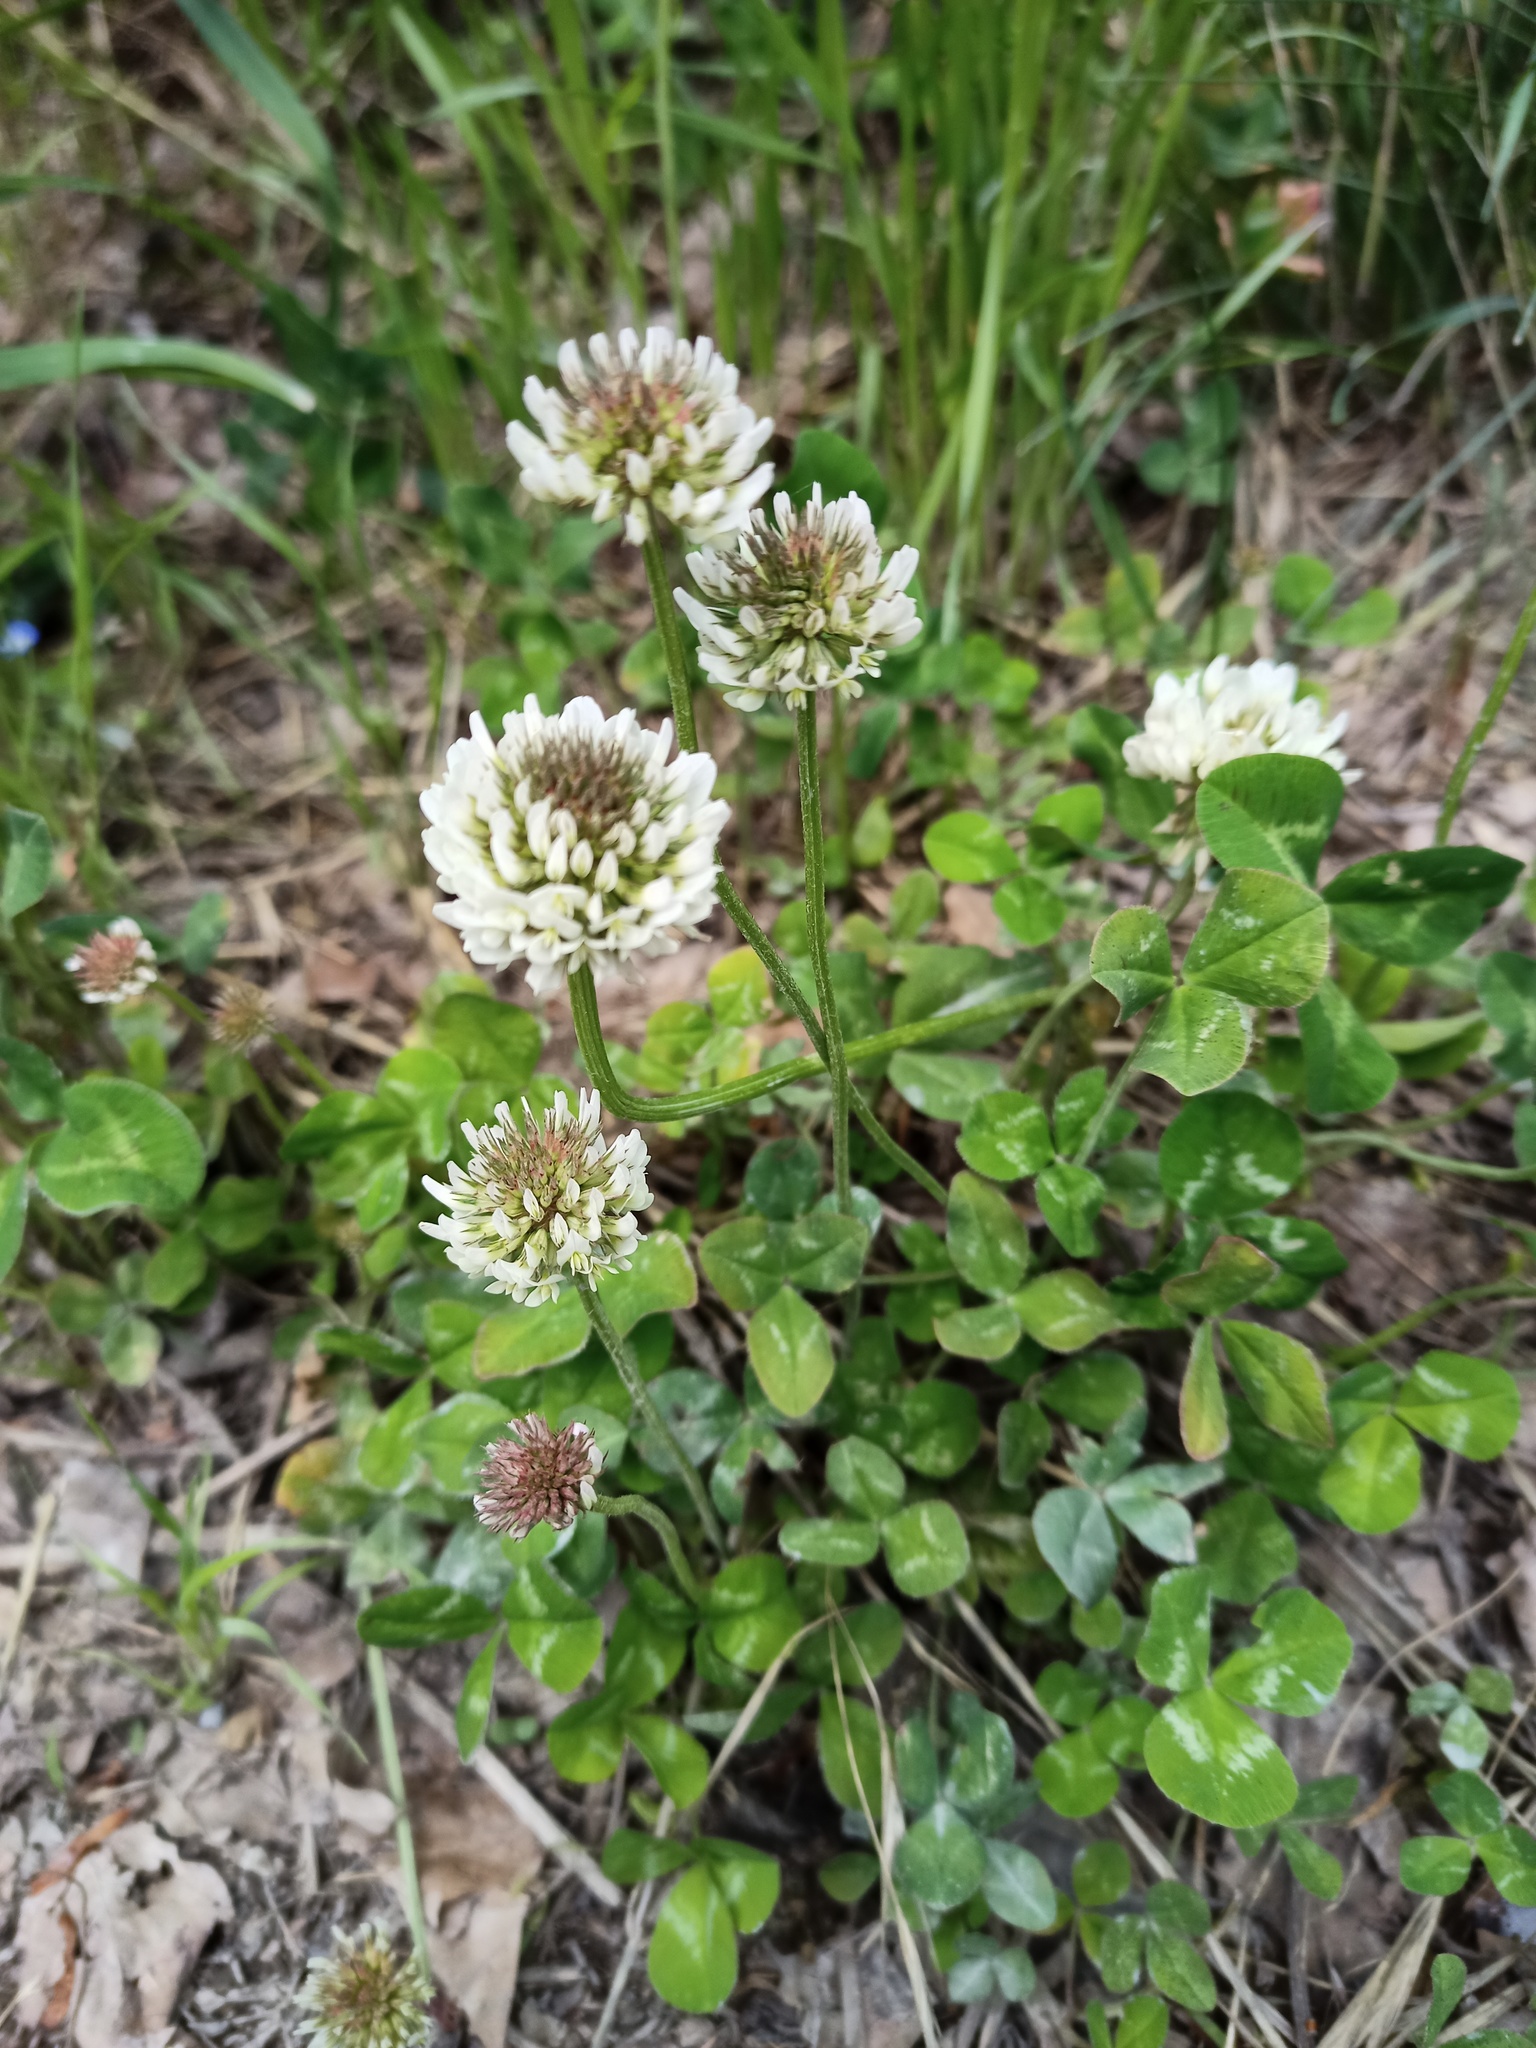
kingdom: Plantae
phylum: Tracheophyta
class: Magnoliopsida
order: Fabales
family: Fabaceae
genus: Trifolium
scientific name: Trifolium repens
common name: White clover
